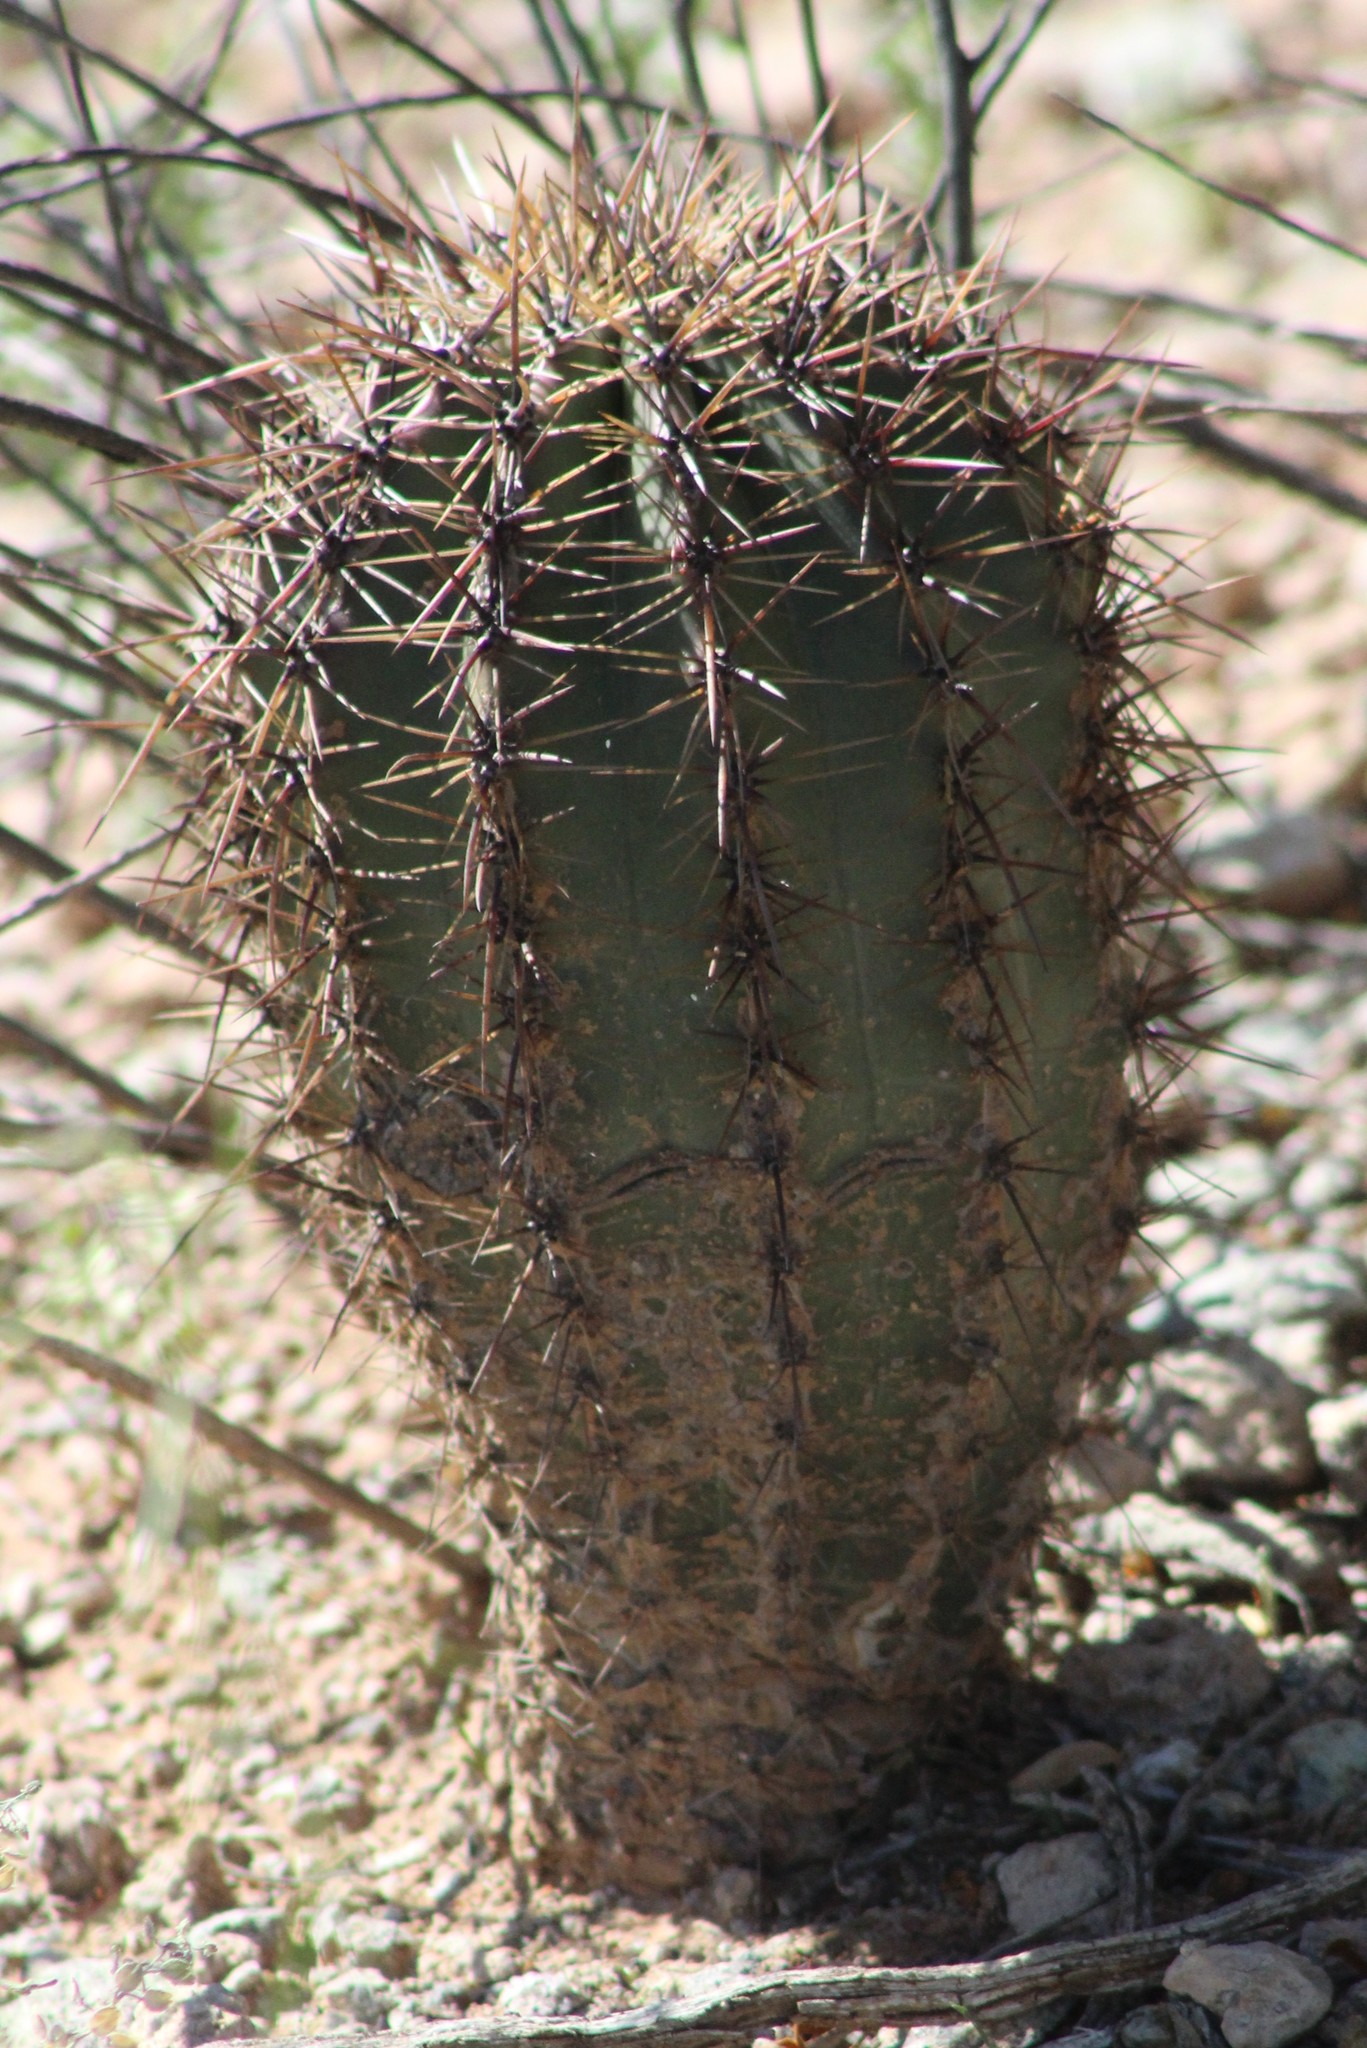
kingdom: Plantae
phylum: Tracheophyta
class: Magnoliopsida
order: Caryophyllales
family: Cactaceae
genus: Carnegiea
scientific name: Carnegiea gigantea
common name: Saguaro
